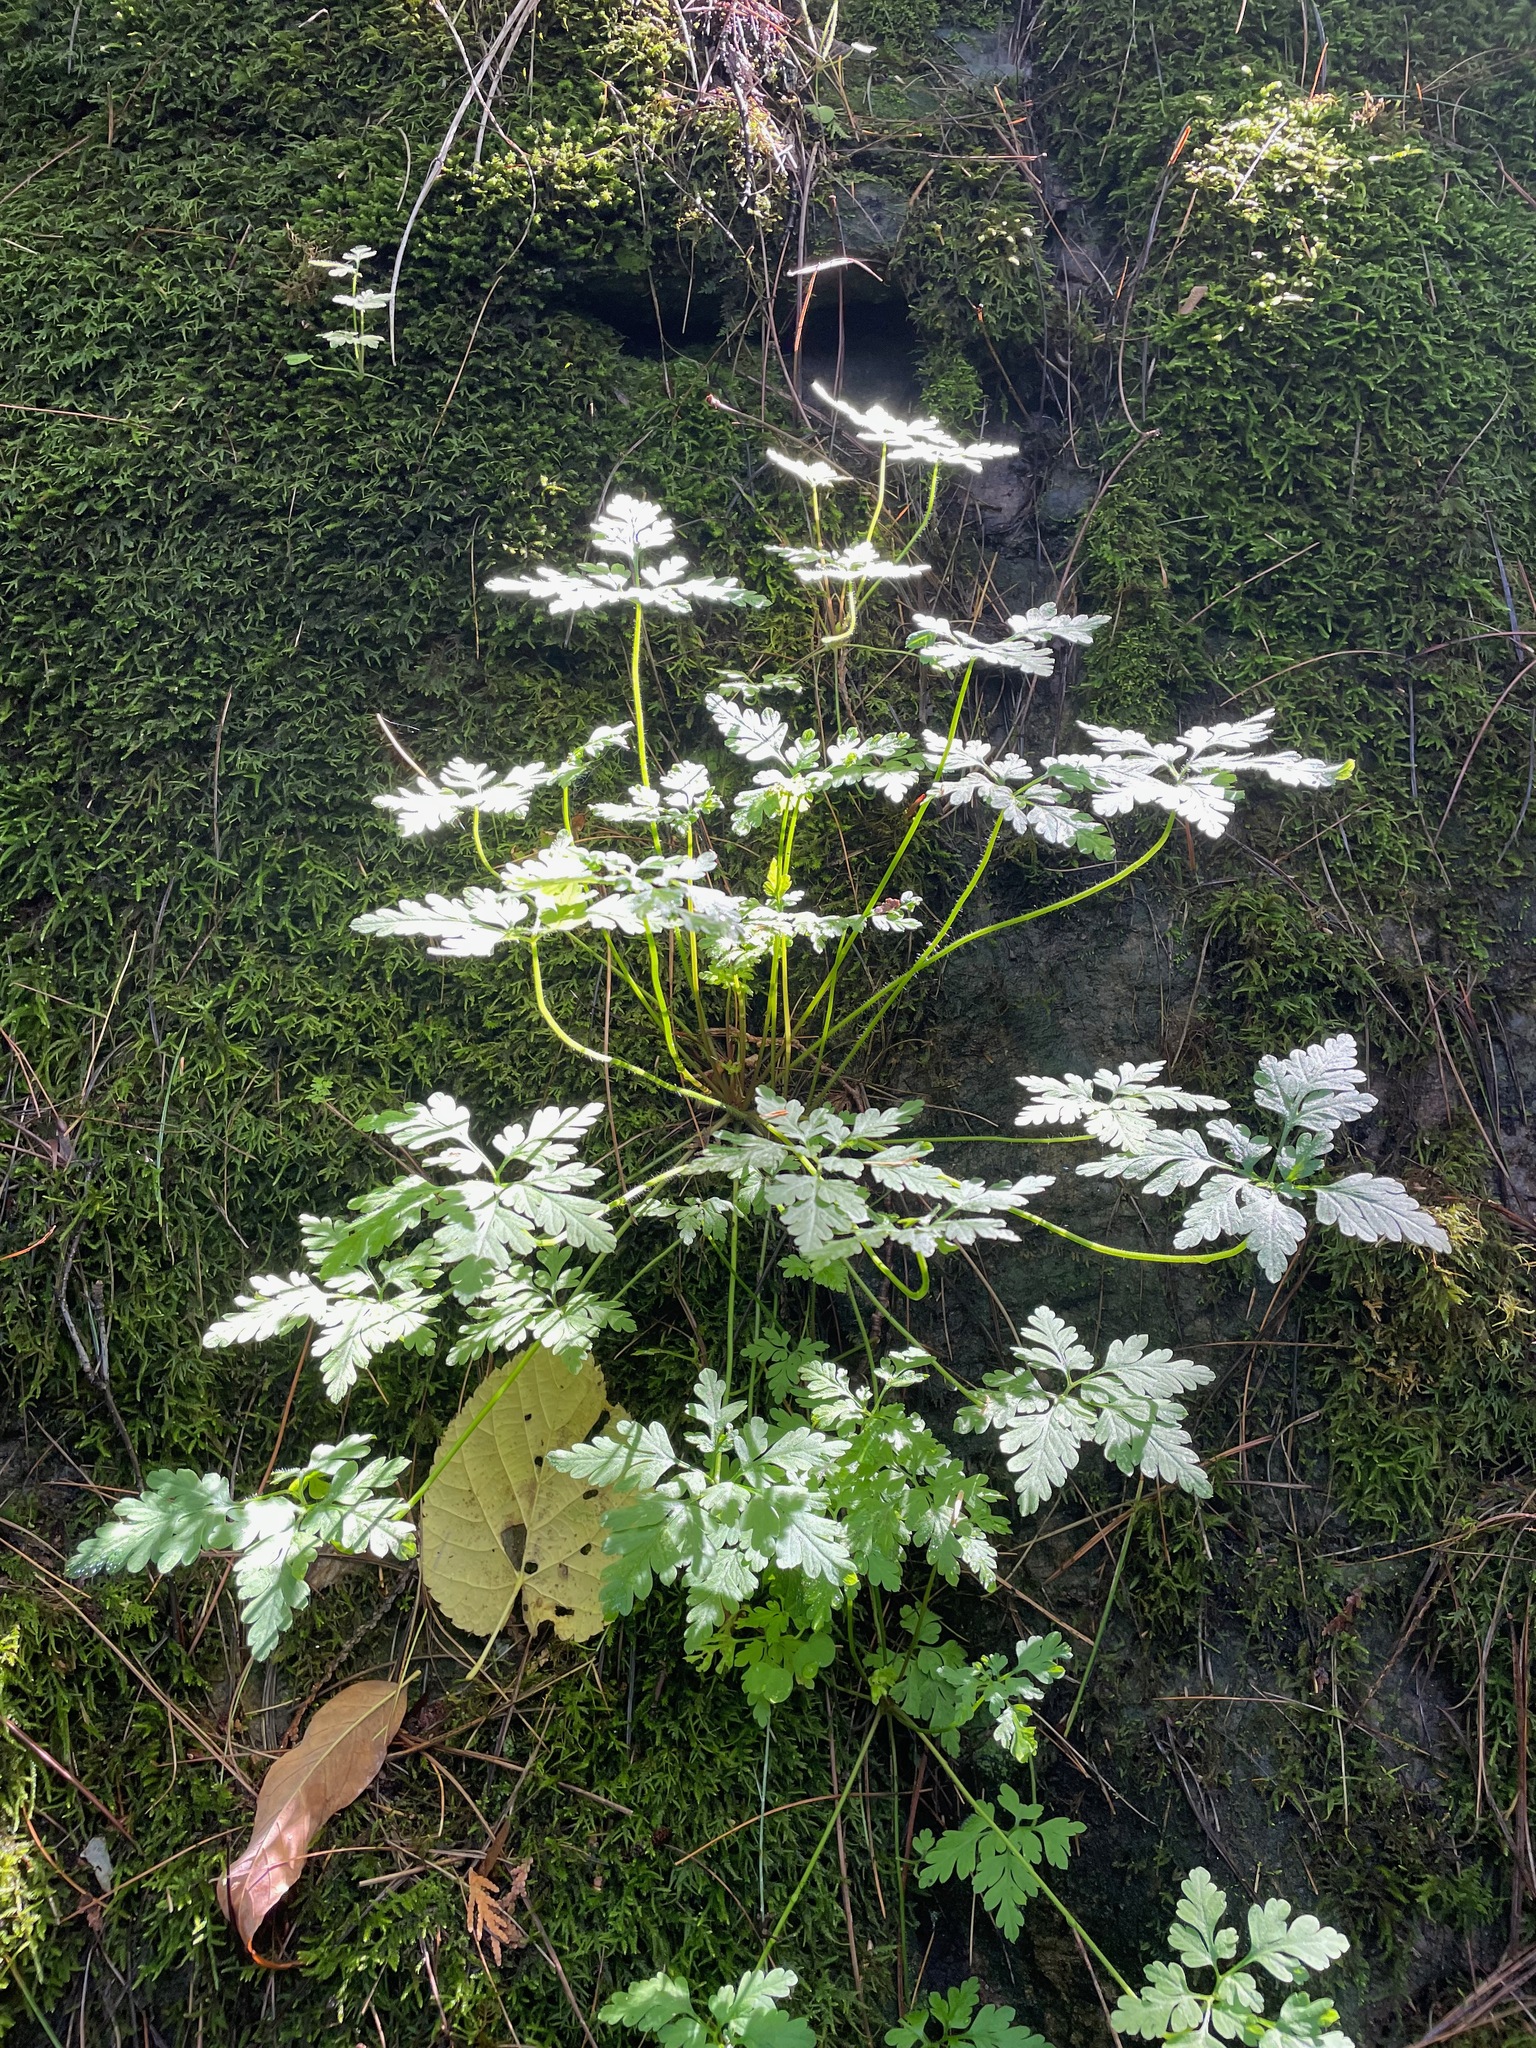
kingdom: Plantae
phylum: Tracheophyta
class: Magnoliopsida
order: Geraniales
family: Geraniaceae
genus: Geranium
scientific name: Geranium robertianum
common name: Herb-robert
